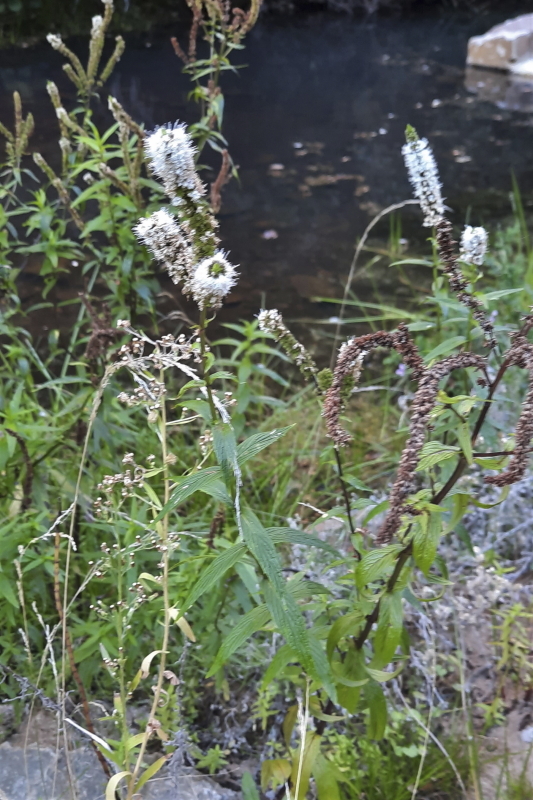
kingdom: Plantae
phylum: Tracheophyta
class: Magnoliopsida
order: Lamiales
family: Lamiaceae
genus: Mentha
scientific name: Mentha longifolia
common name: Horse mint
